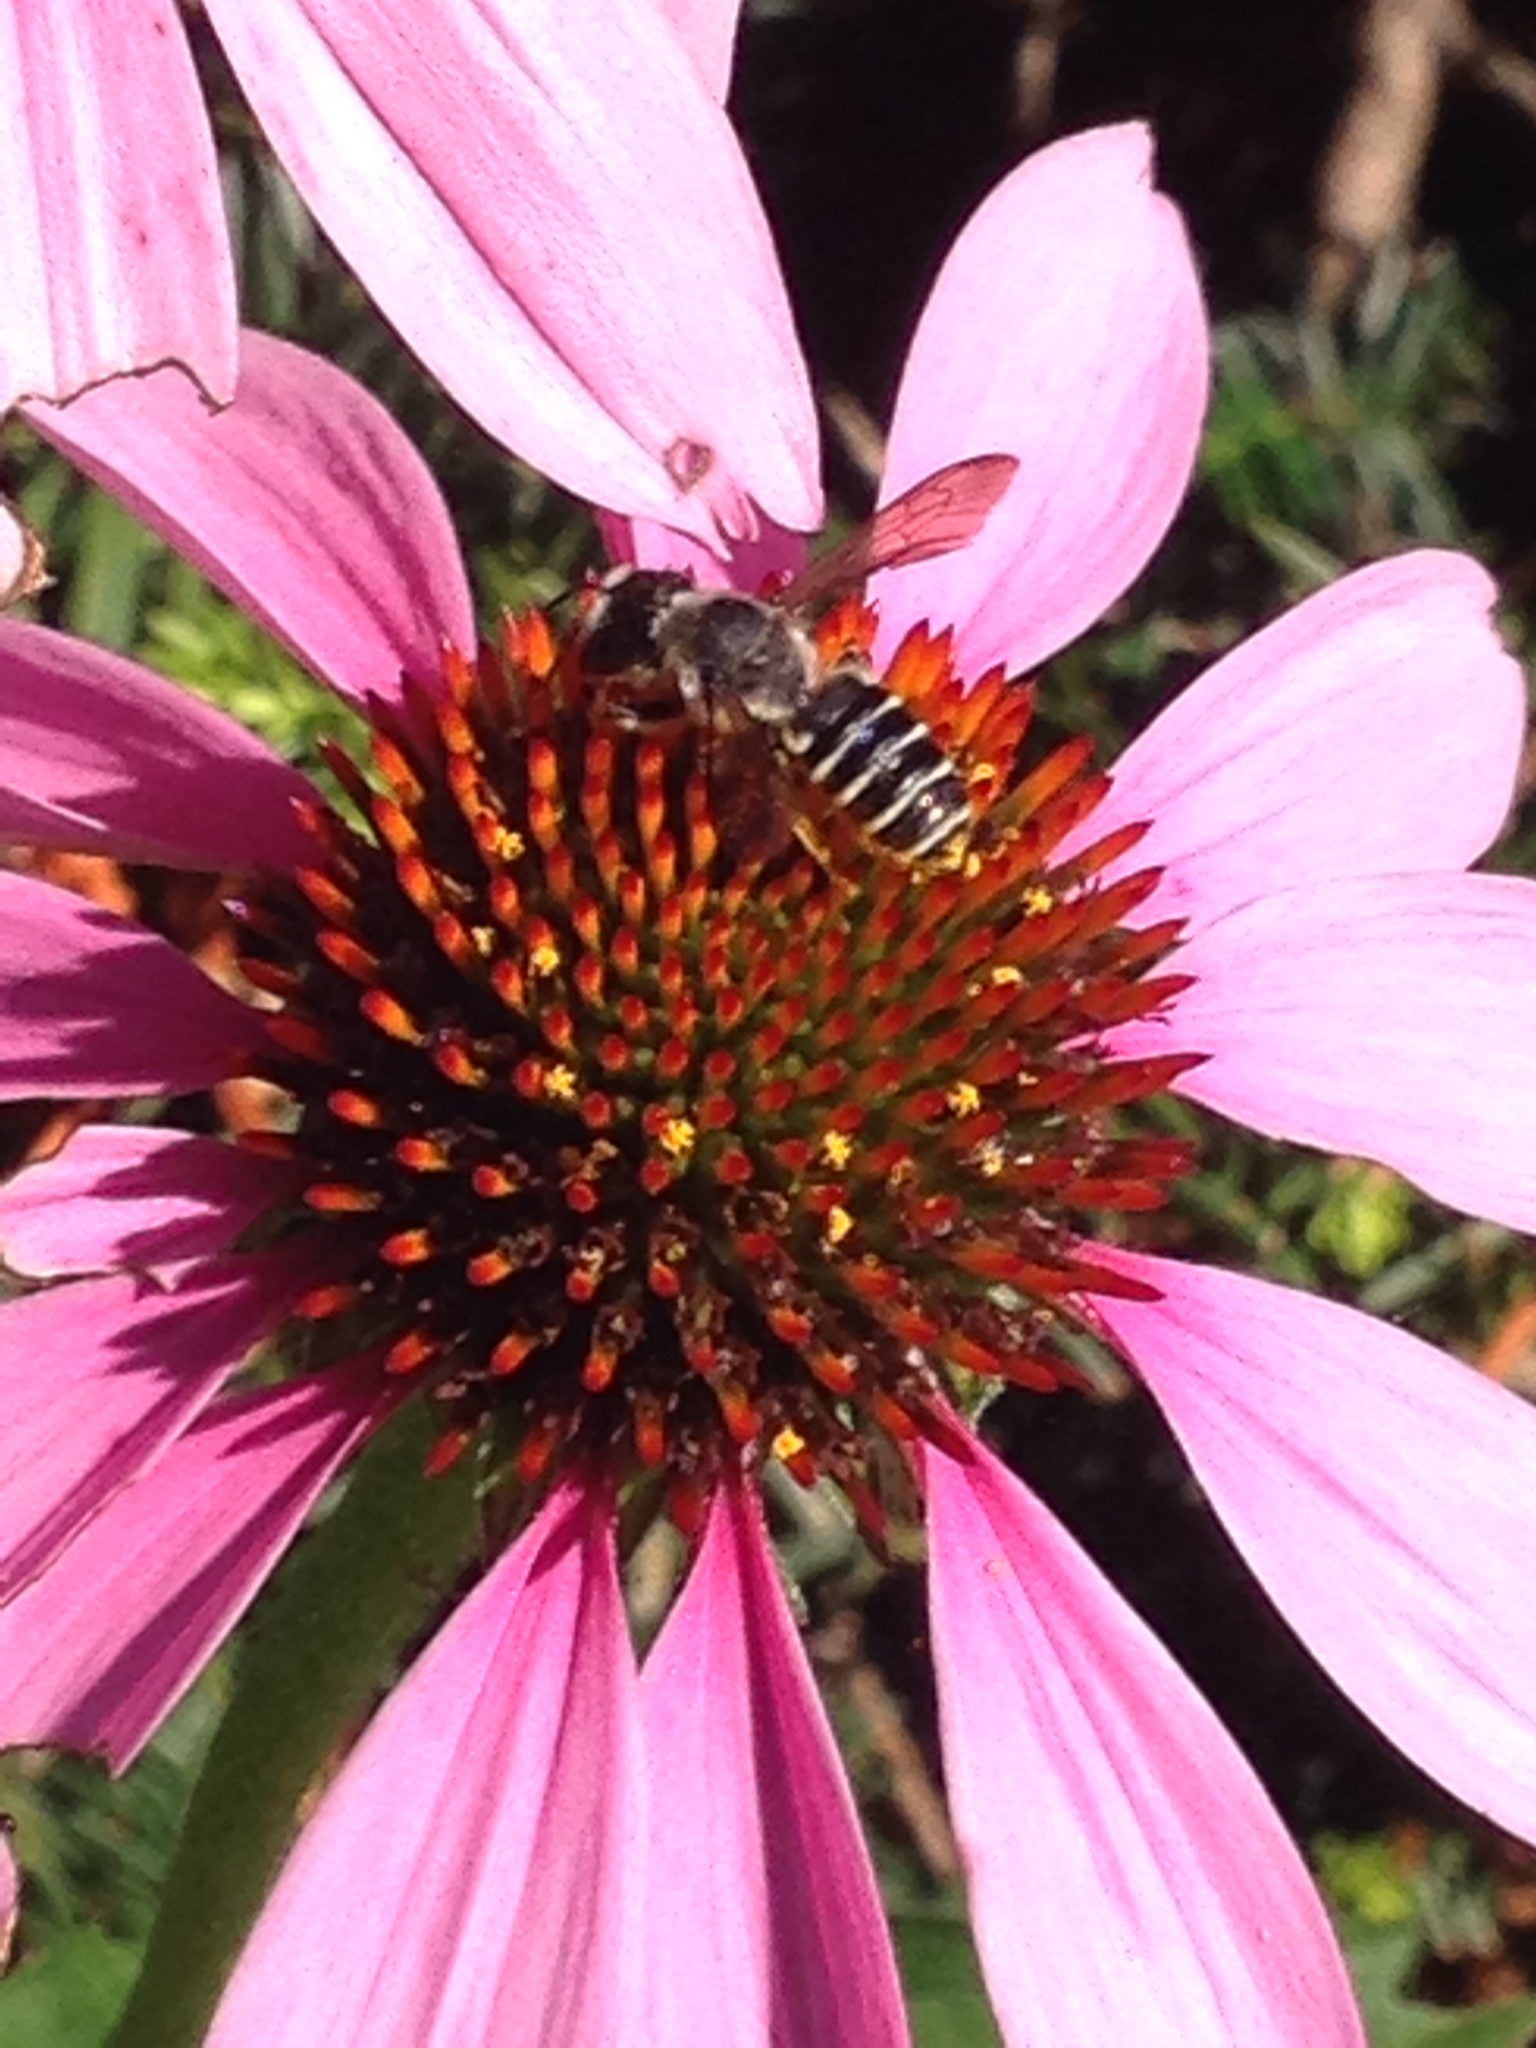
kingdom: Animalia
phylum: Arthropoda
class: Insecta
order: Hymenoptera
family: Megachilidae
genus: Megachile
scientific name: Megachile pugnata
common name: Pugnacious leafcutter bee
